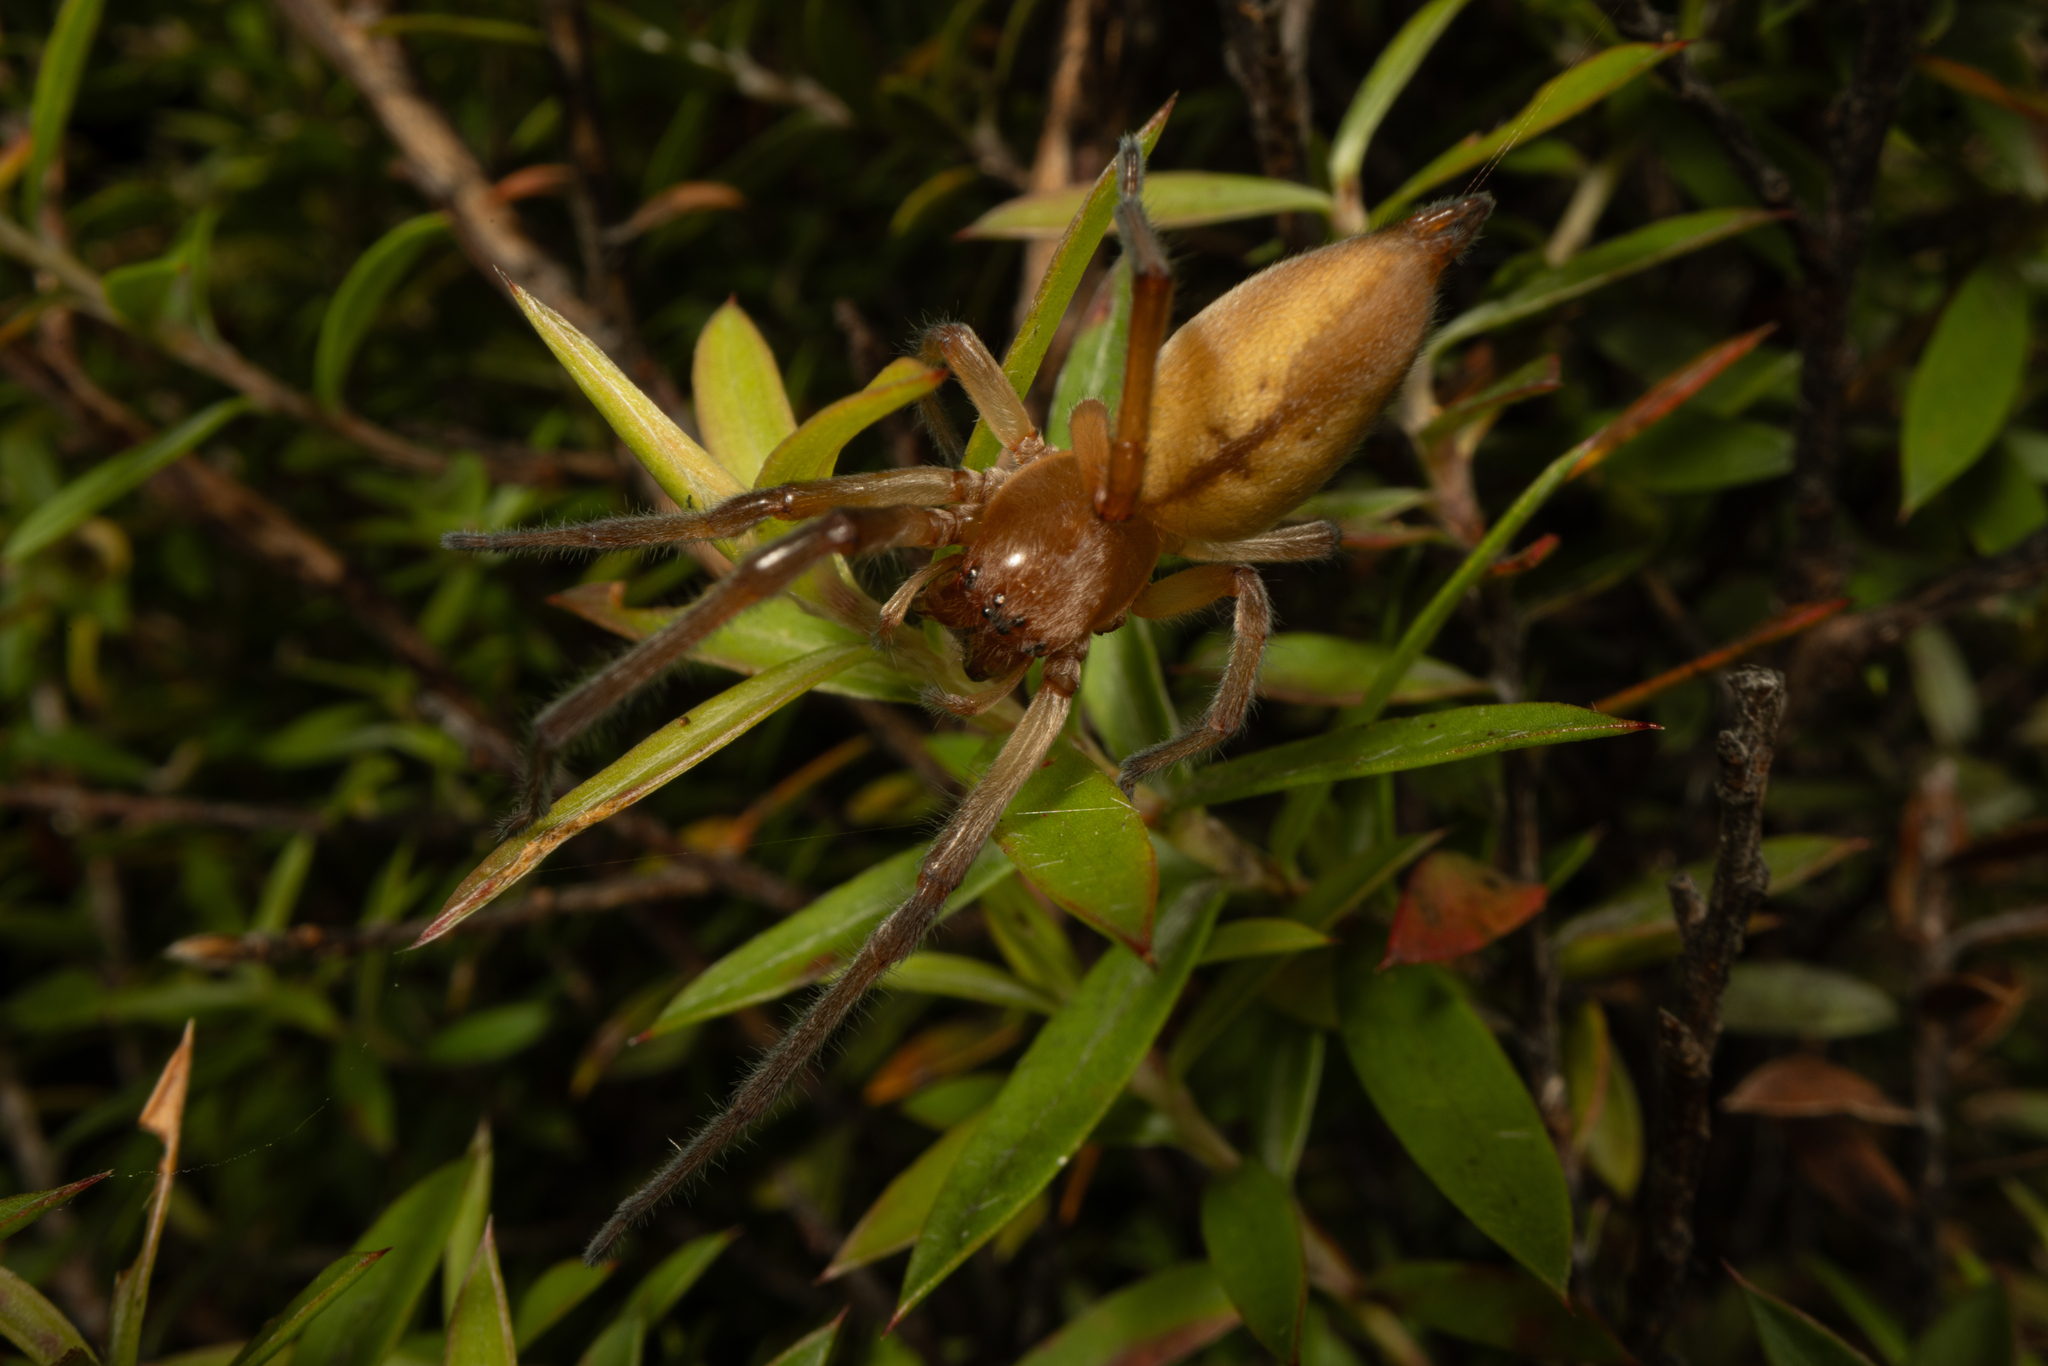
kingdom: Animalia
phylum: Arthropoda
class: Arachnida
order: Araneae
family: Cheiracanthiidae
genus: Eutittha
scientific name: Eutittha stratiotica
